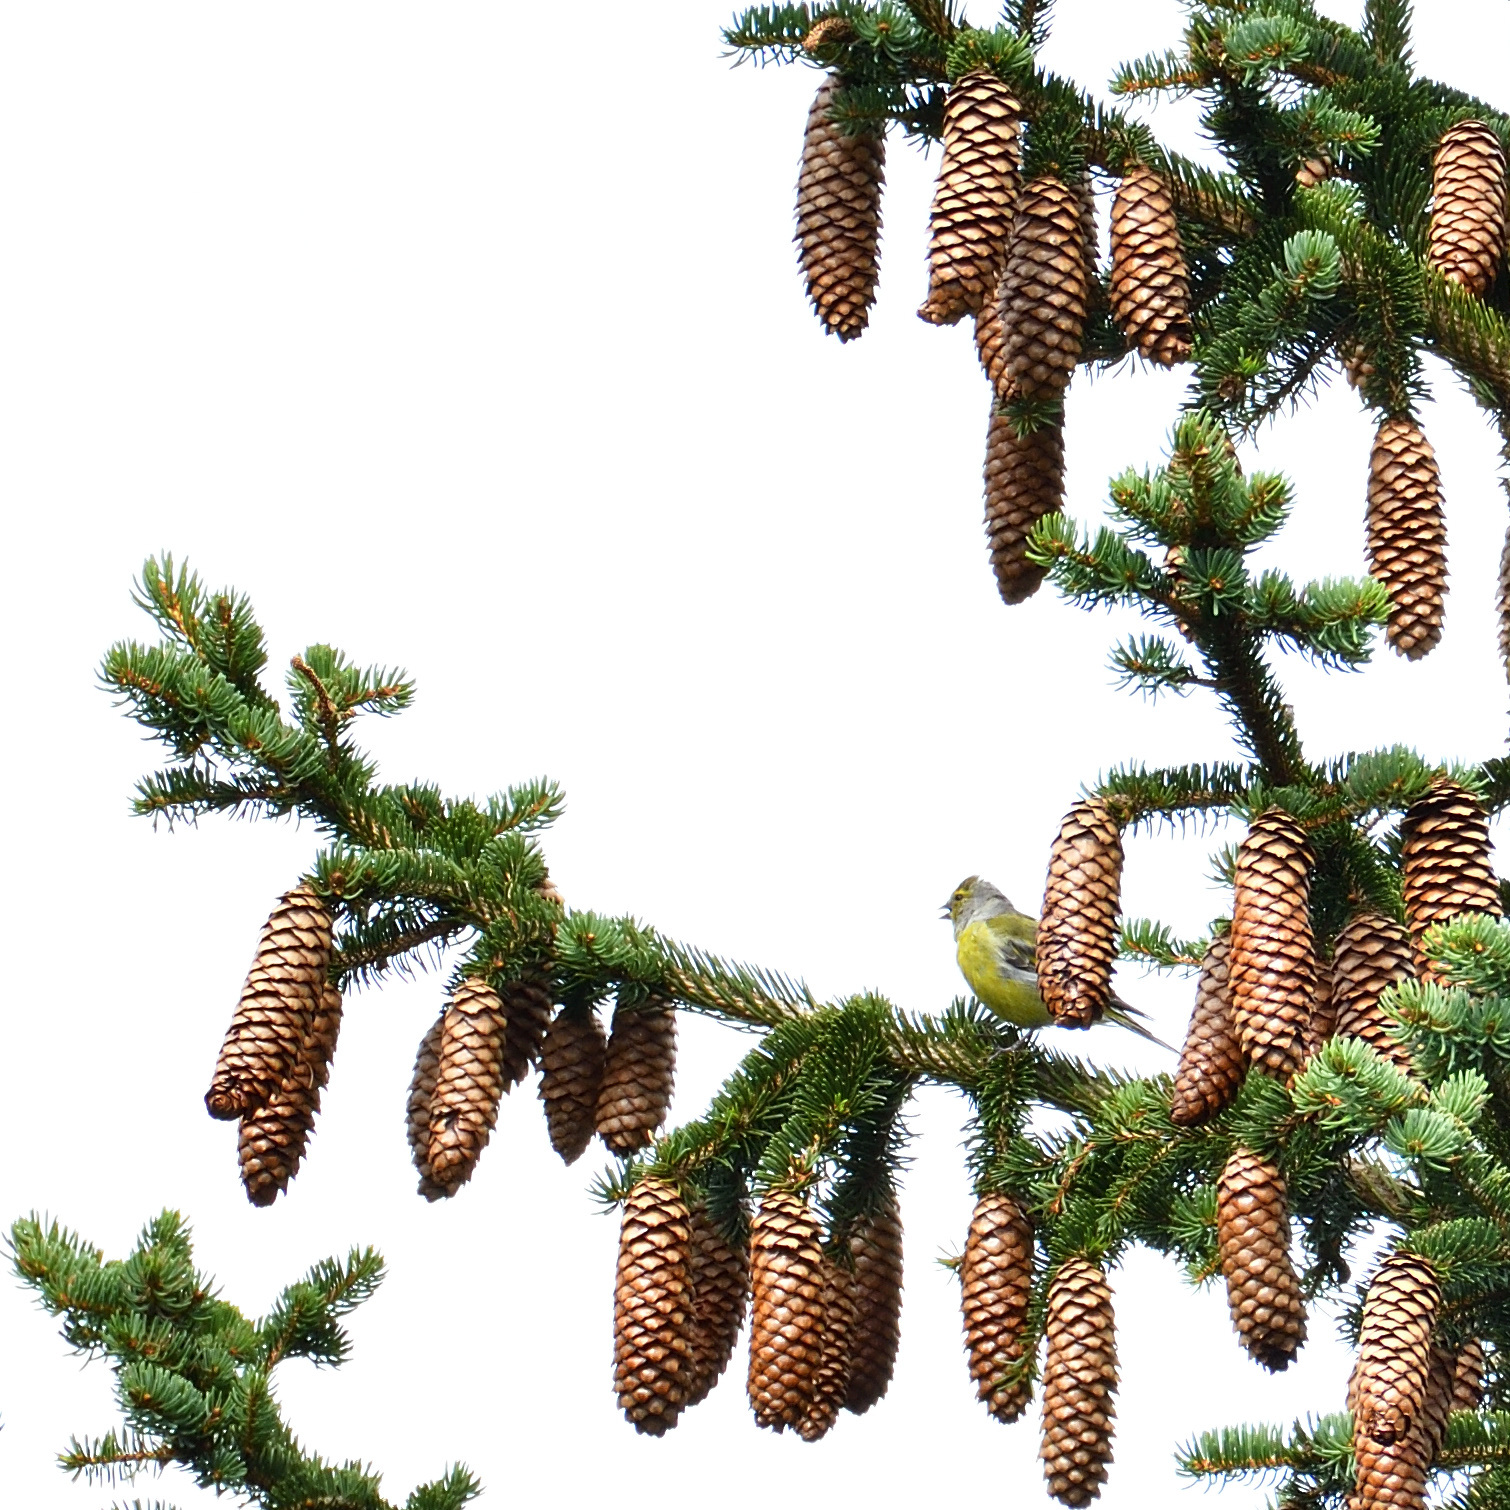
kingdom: Animalia
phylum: Chordata
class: Aves
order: Passeriformes
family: Fringillidae
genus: Carduelis
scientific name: Carduelis citrinella
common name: Citril finch
